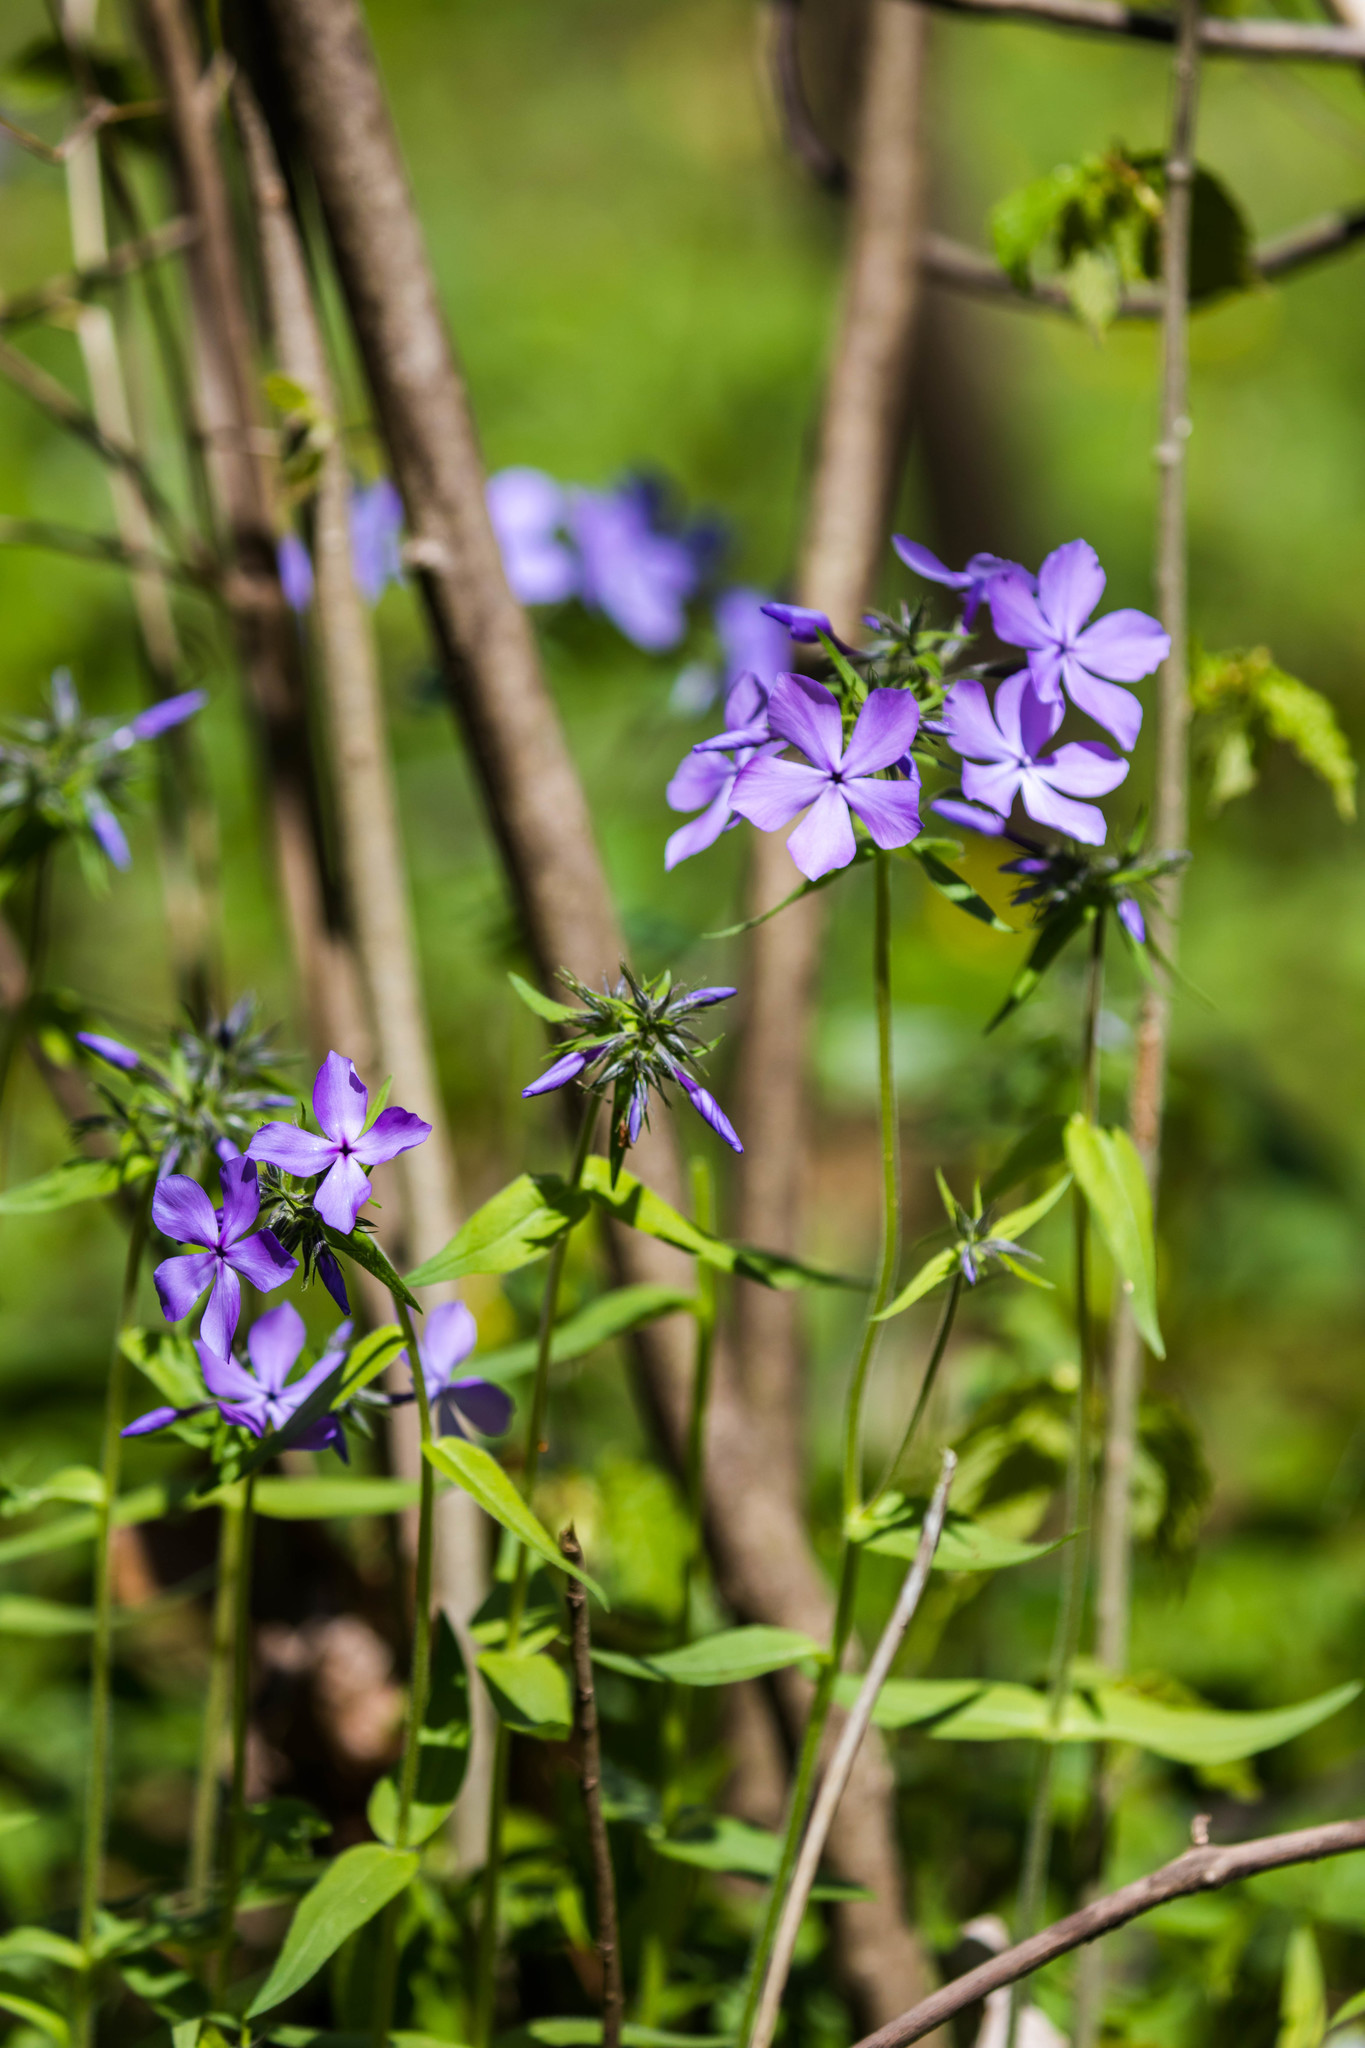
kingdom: Plantae
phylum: Tracheophyta
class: Magnoliopsida
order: Ericales
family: Polemoniaceae
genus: Phlox
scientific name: Phlox divaricata
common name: Blue phlox
